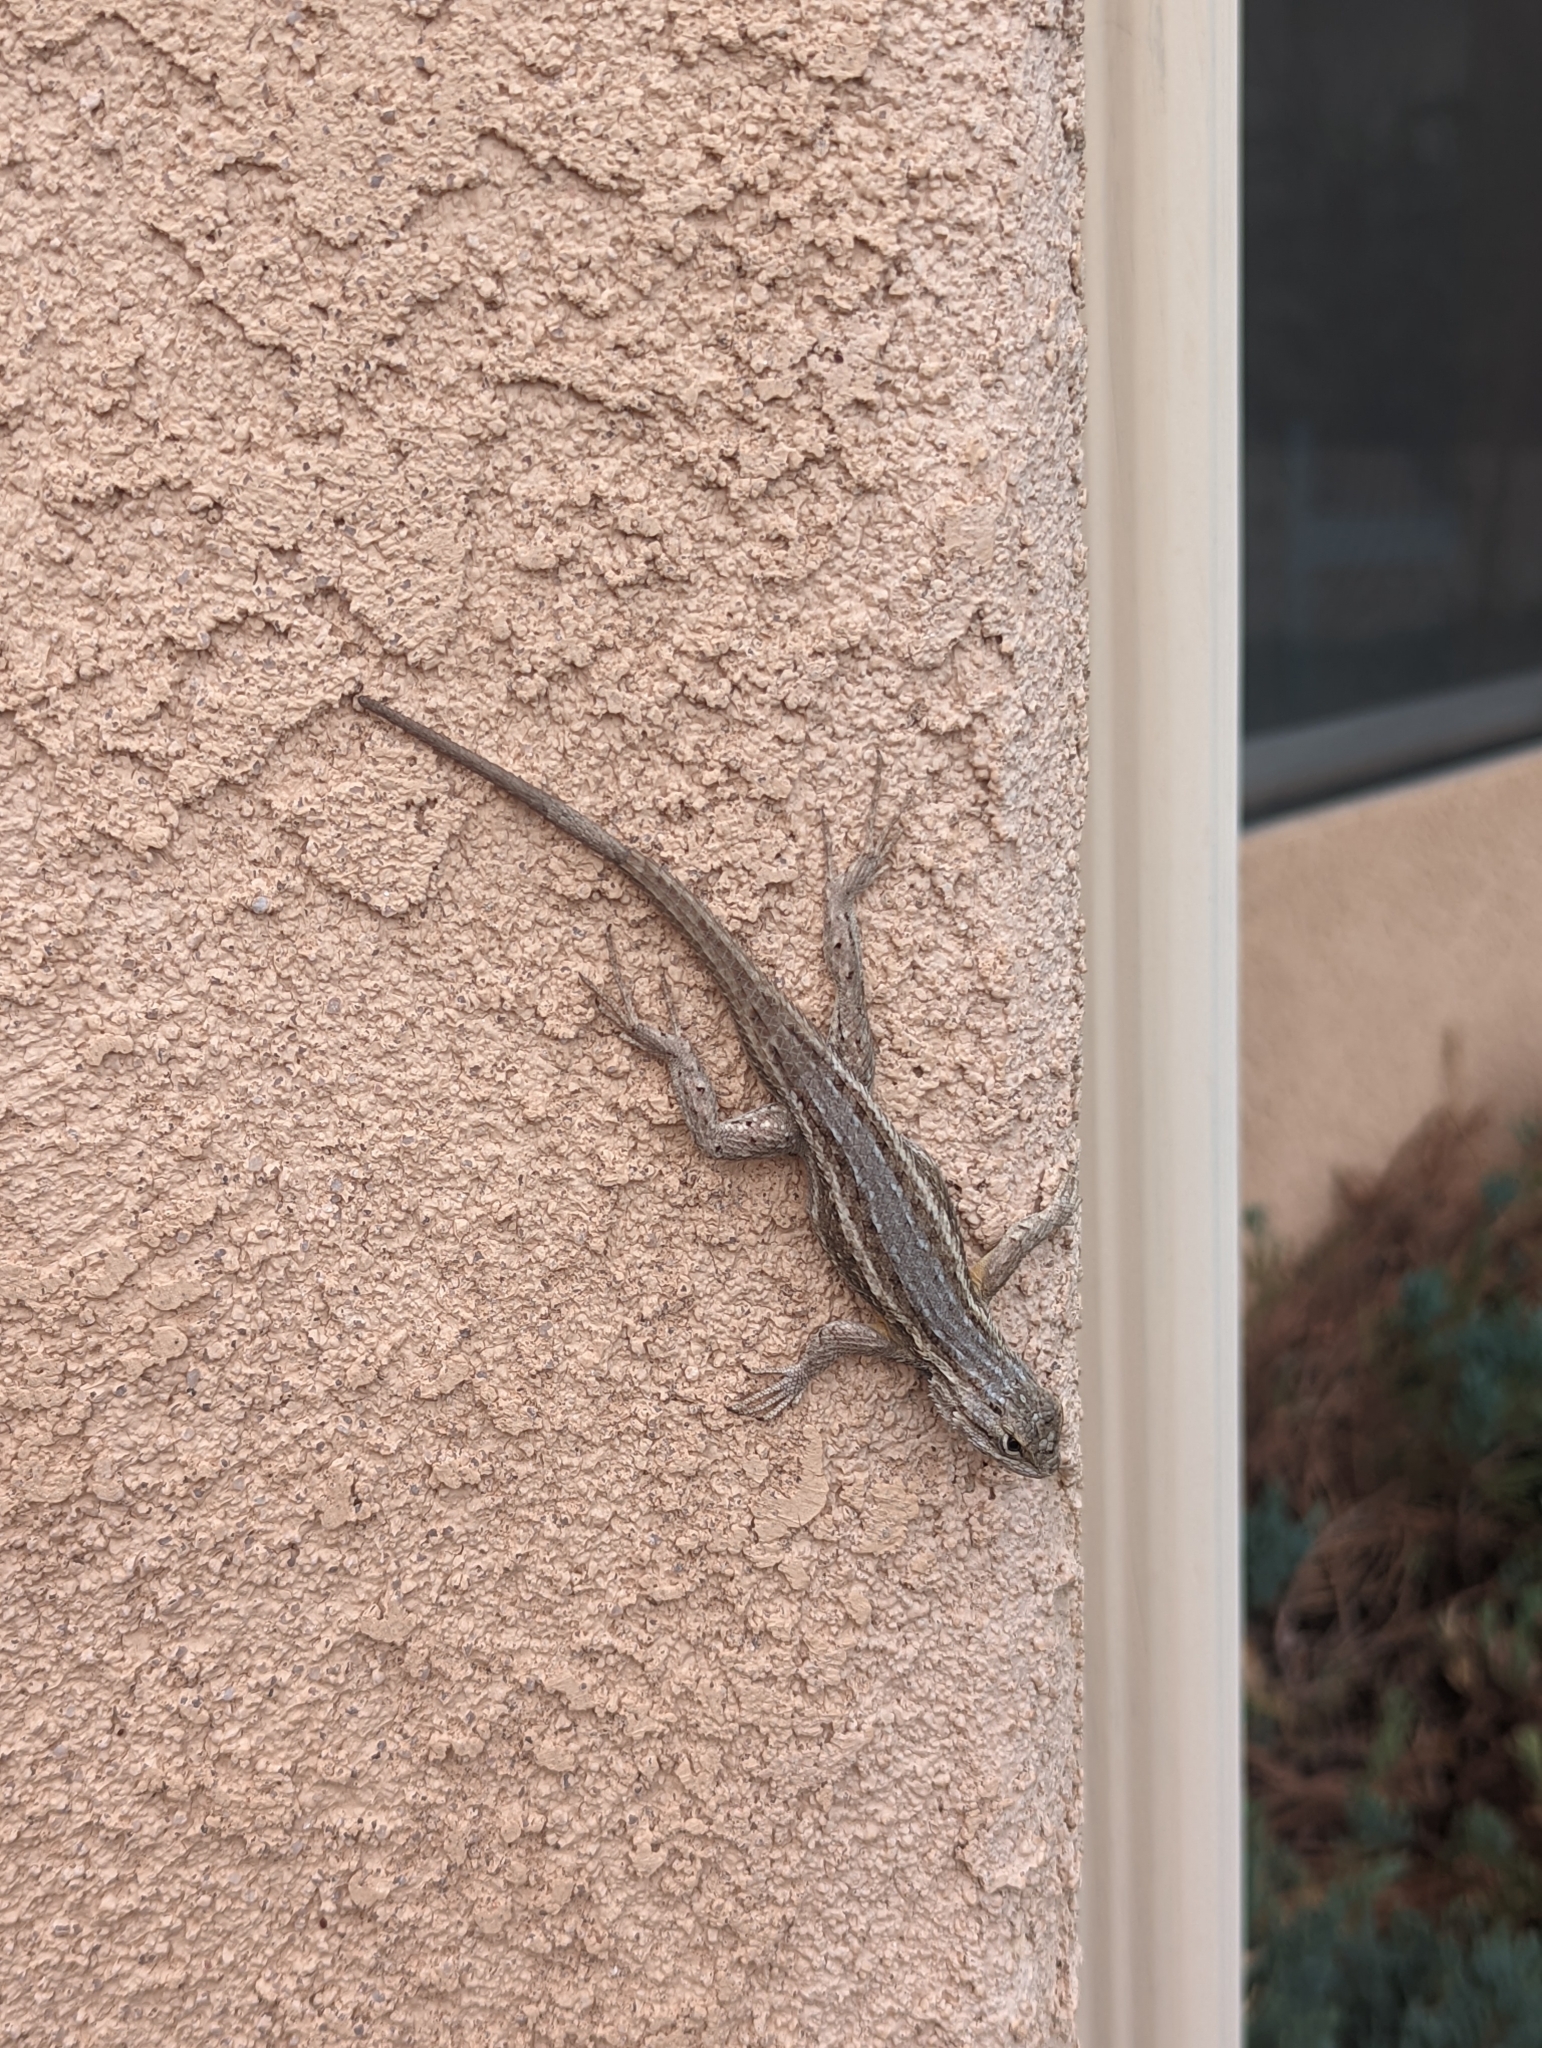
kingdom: Animalia
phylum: Chordata
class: Squamata
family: Phrynosomatidae
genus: Sceloporus
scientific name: Sceloporus cowlesi
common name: White sands prairie lizard
